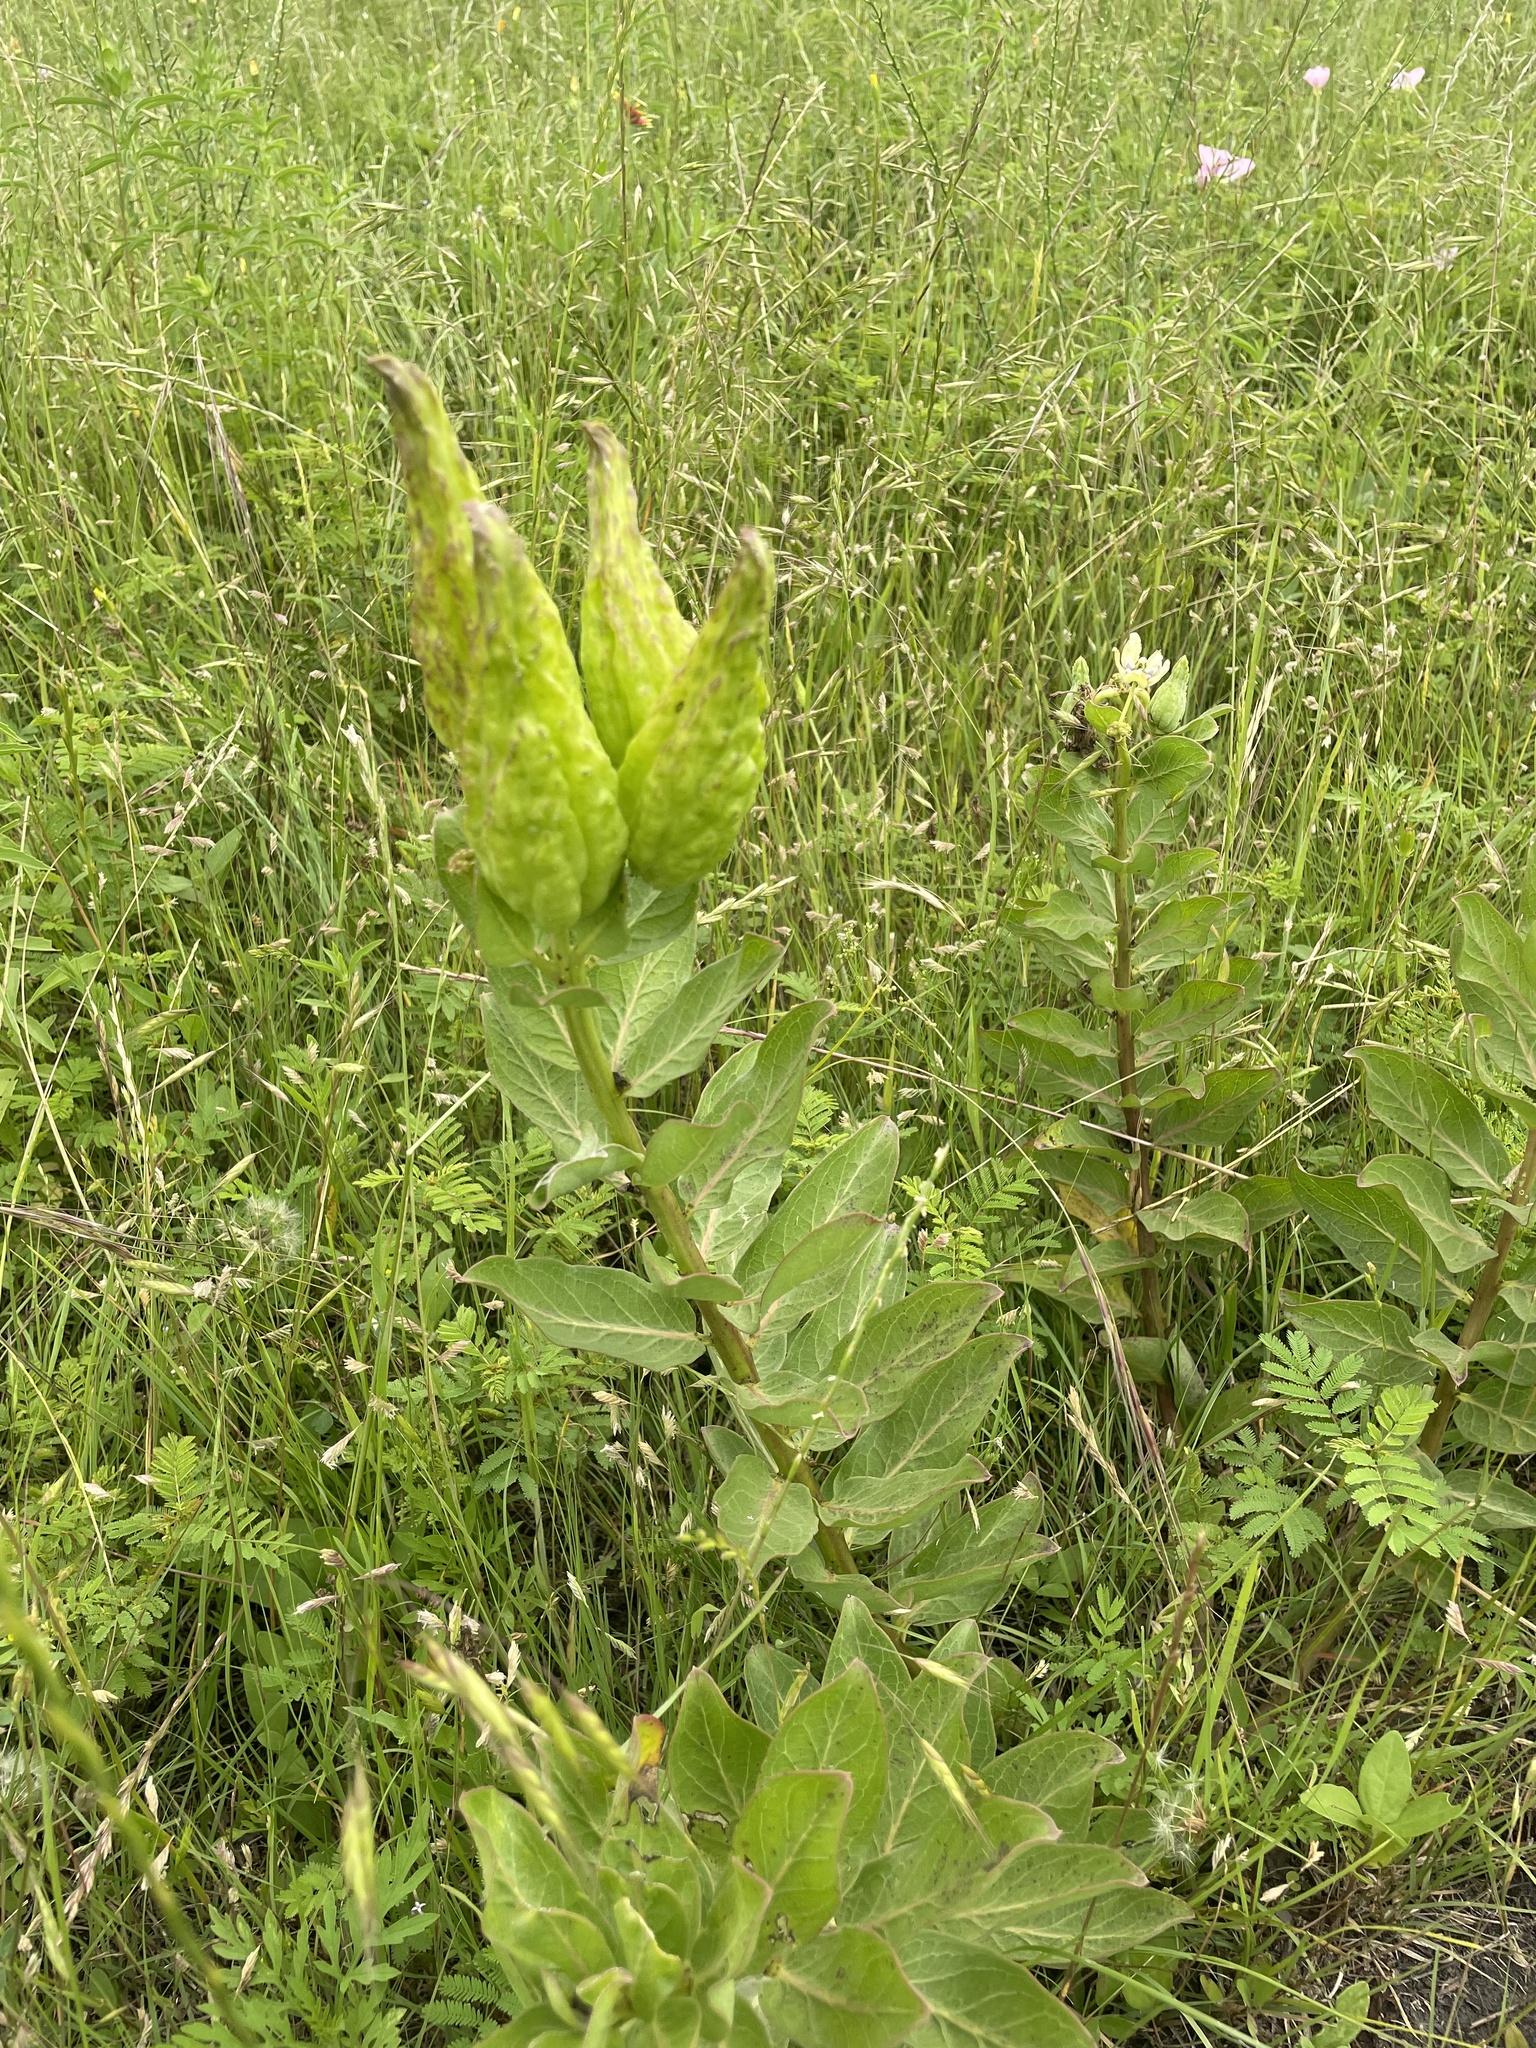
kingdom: Plantae
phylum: Tracheophyta
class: Magnoliopsida
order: Gentianales
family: Apocynaceae
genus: Asclepias
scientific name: Asclepias viridis
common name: Antelope-horns
